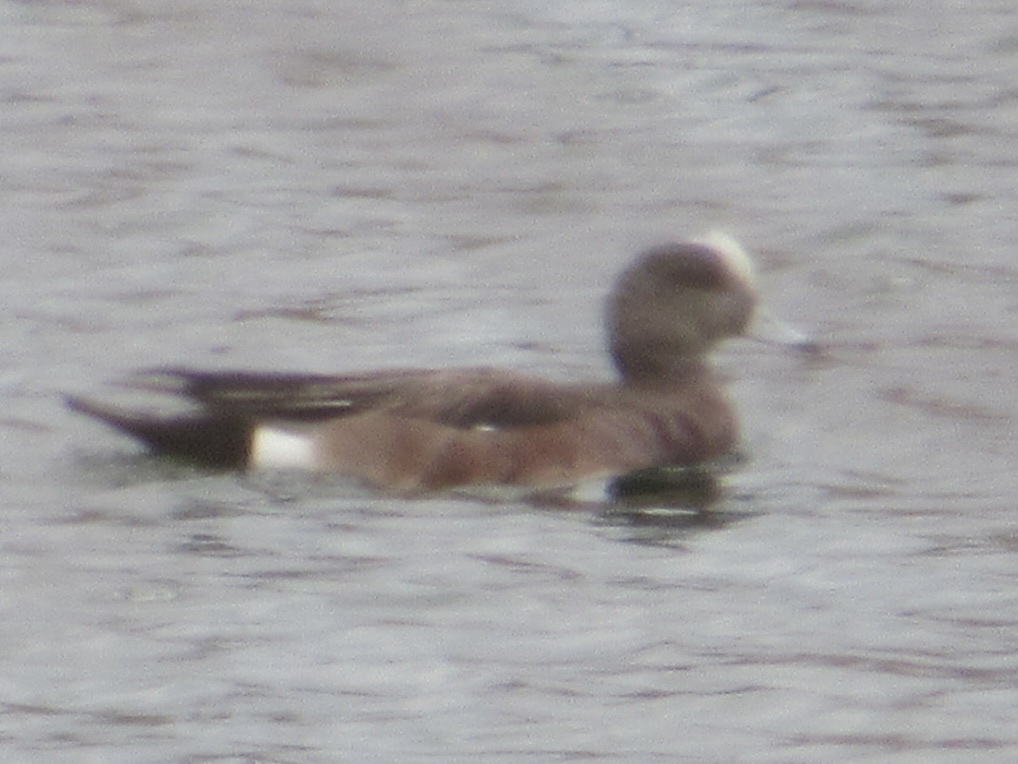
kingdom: Animalia
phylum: Chordata
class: Aves
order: Anseriformes
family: Anatidae
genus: Mareca
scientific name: Mareca americana
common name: American wigeon
